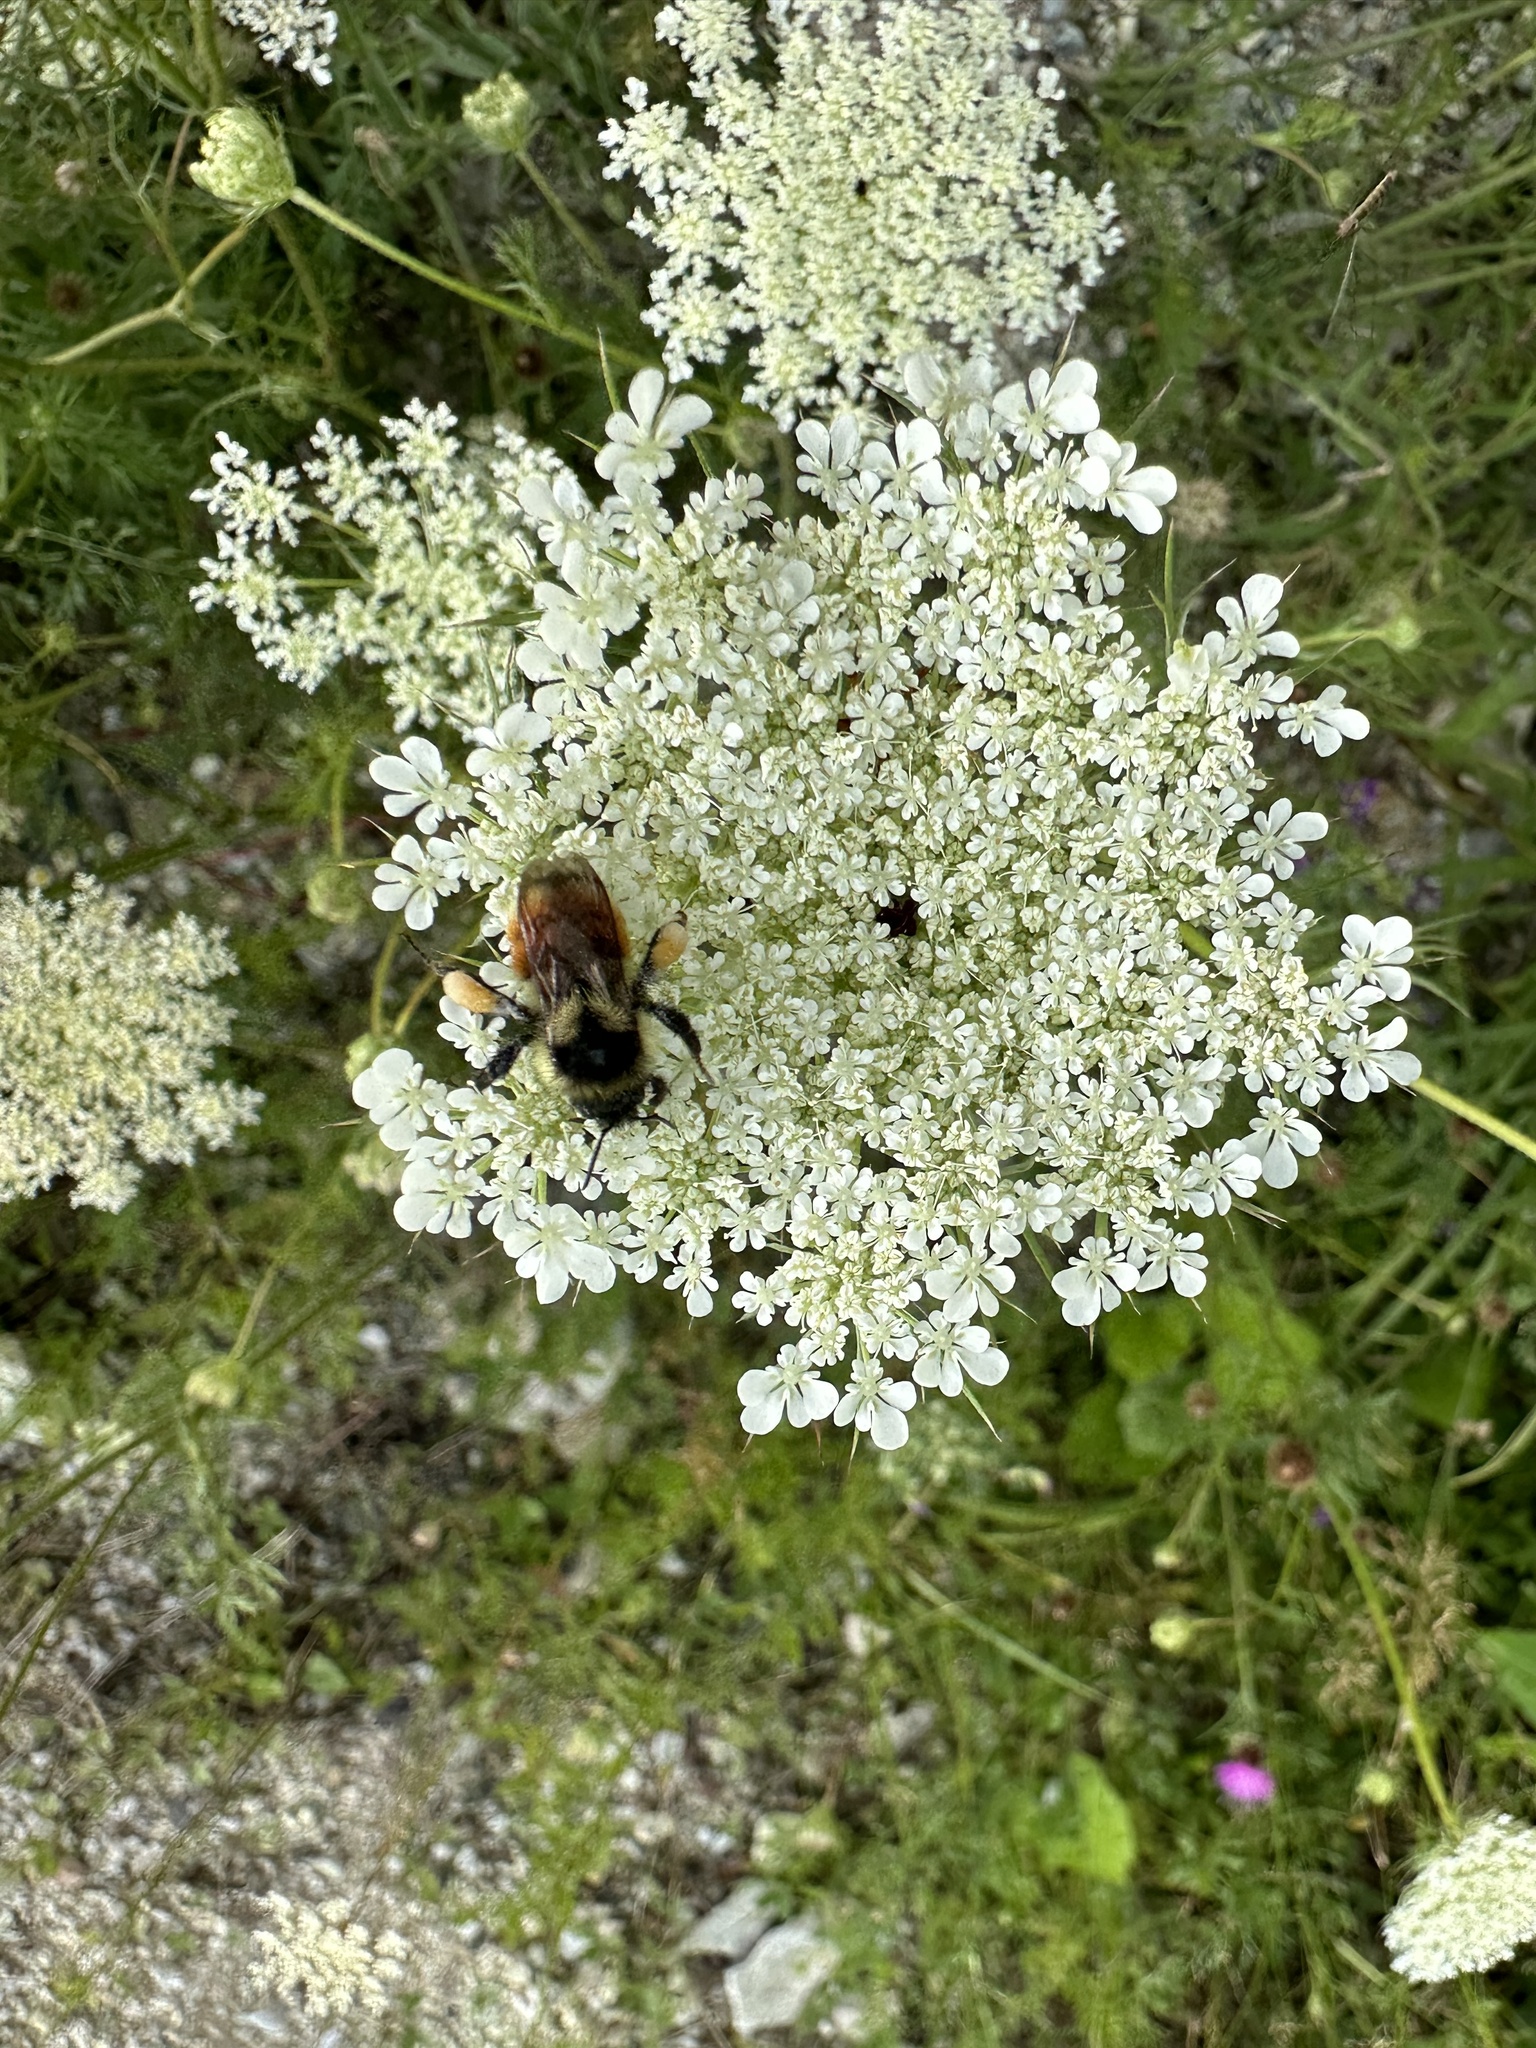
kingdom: Animalia
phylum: Arthropoda
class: Insecta
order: Hymenoptera
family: Apidae
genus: Bombus
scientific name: Bombus ternarius
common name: Tri-colored bumble bee
